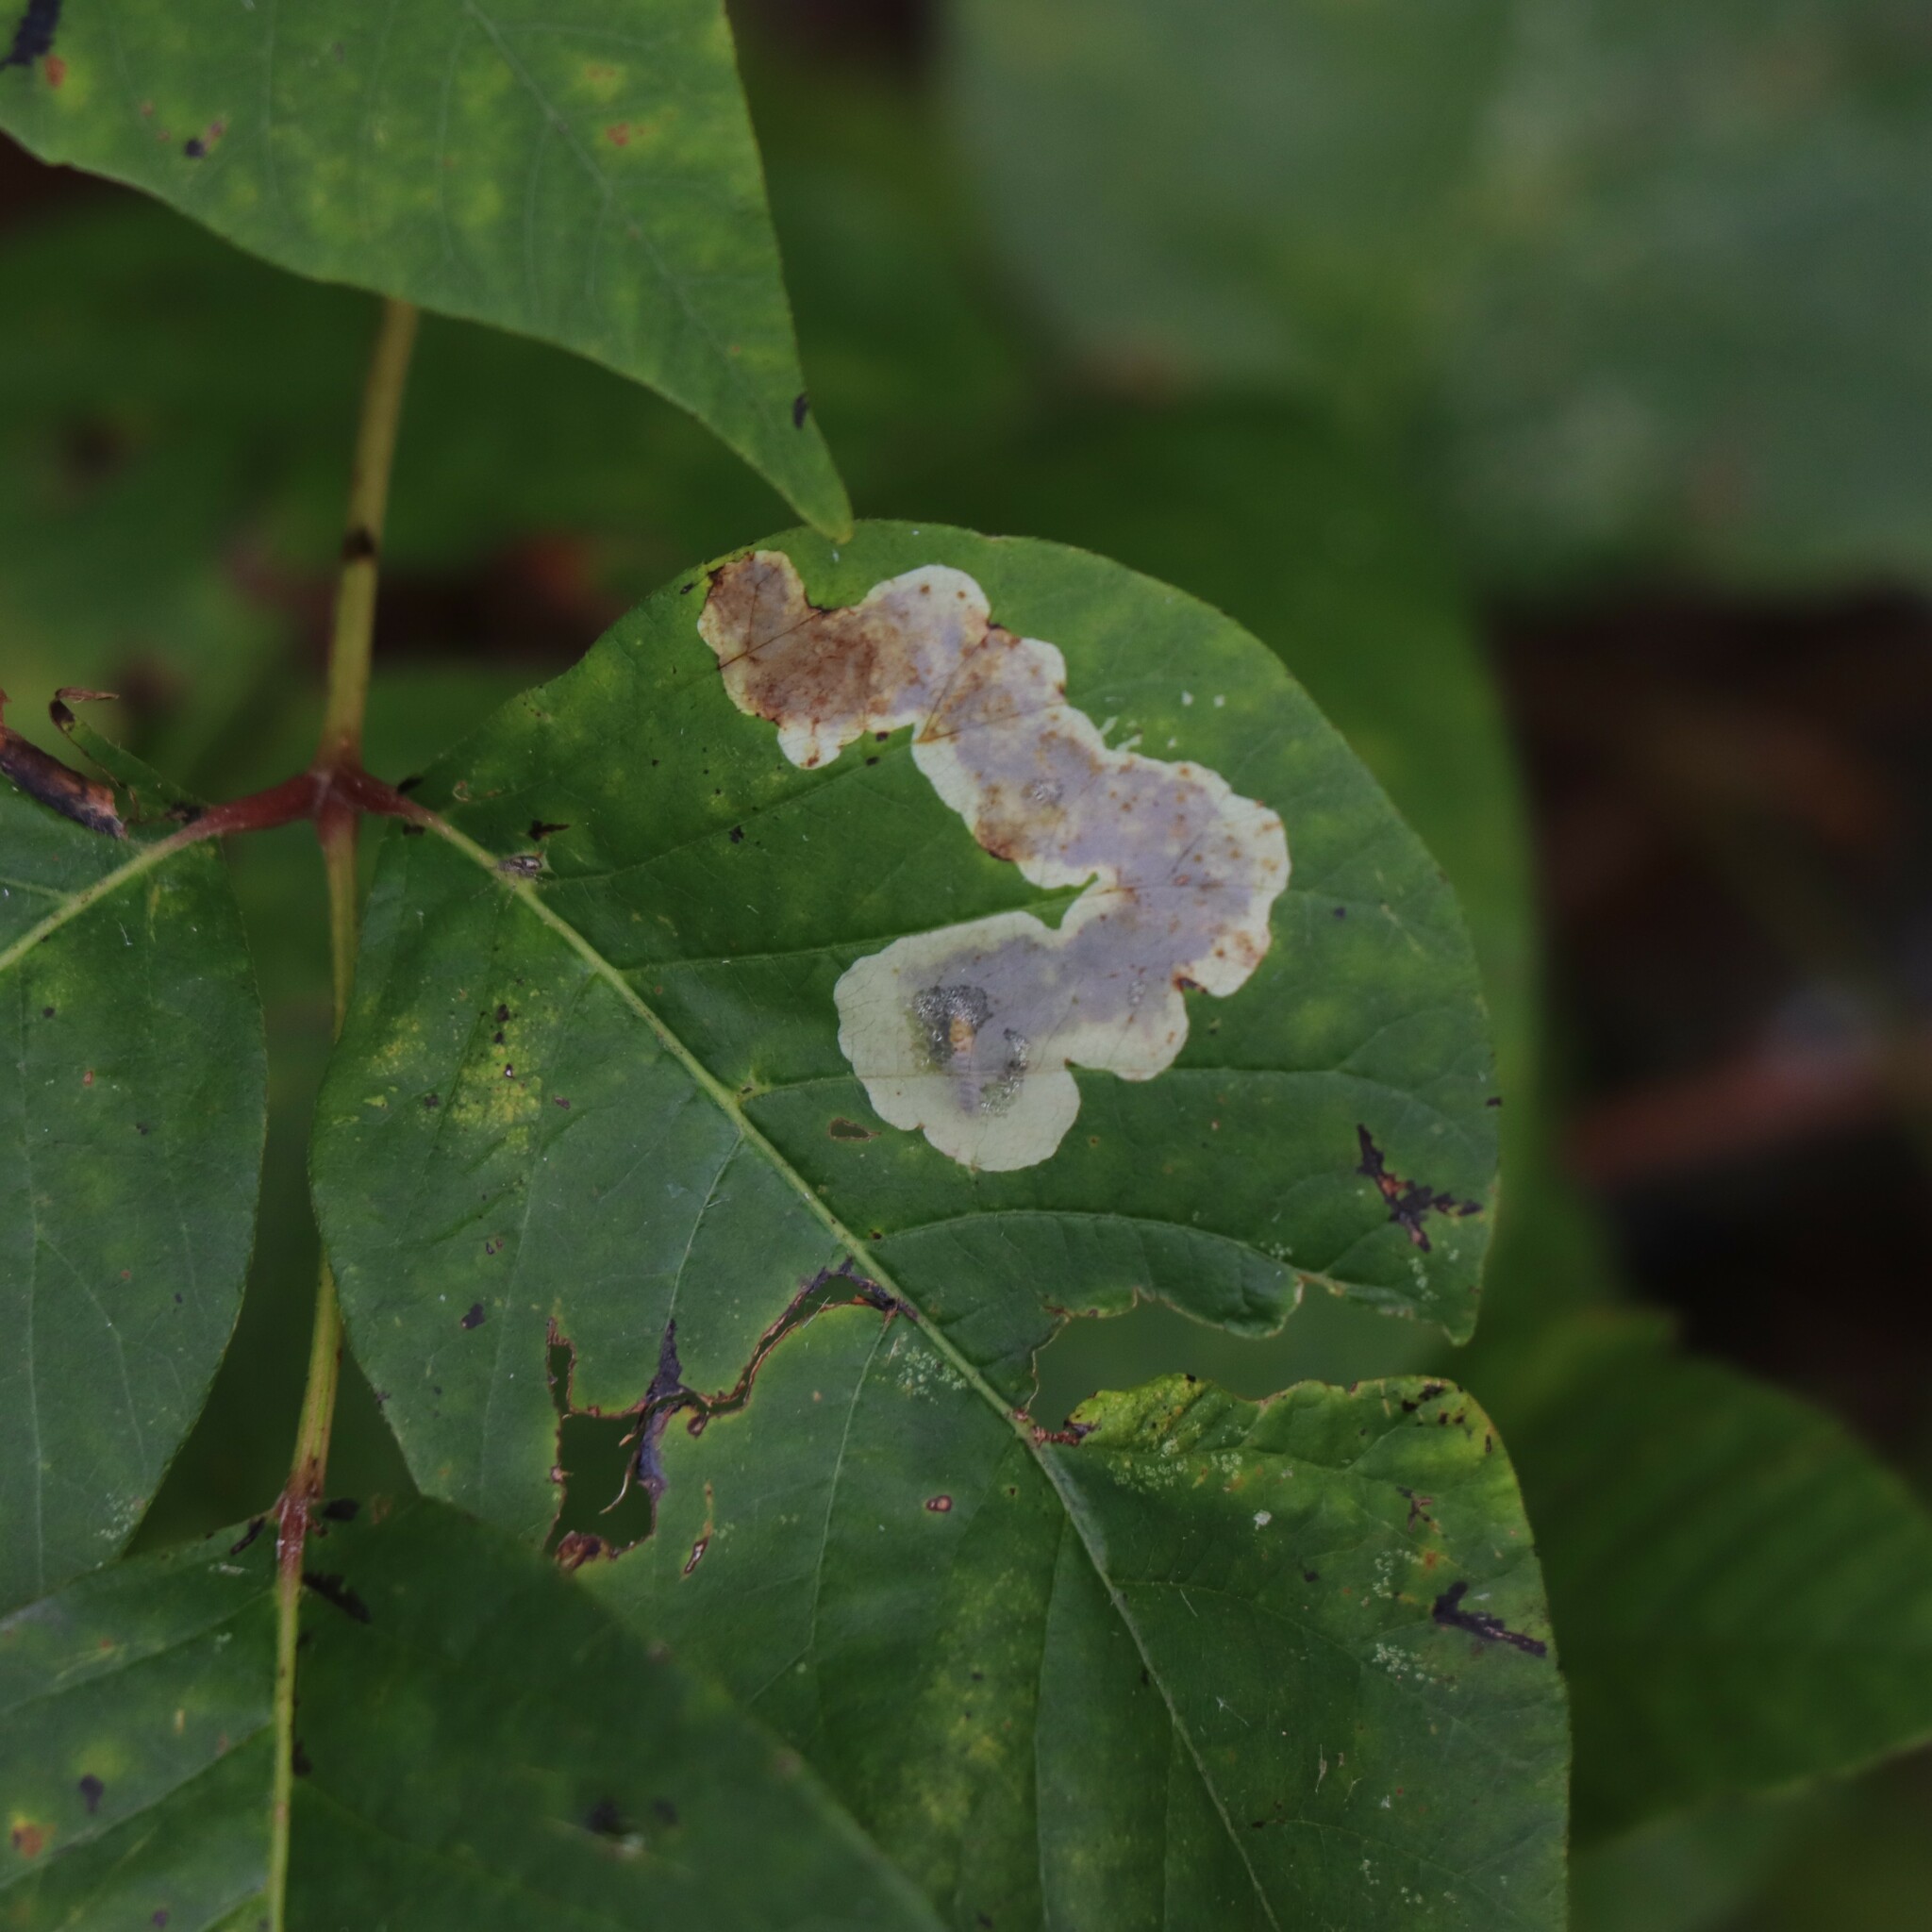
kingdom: Animalia
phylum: Arthropoda
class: Insecta
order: Lepidoptera
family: Gracillariidae
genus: Cameraria
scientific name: Cameraria guttifinitella
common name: Poison ivy leaf-miner moth
